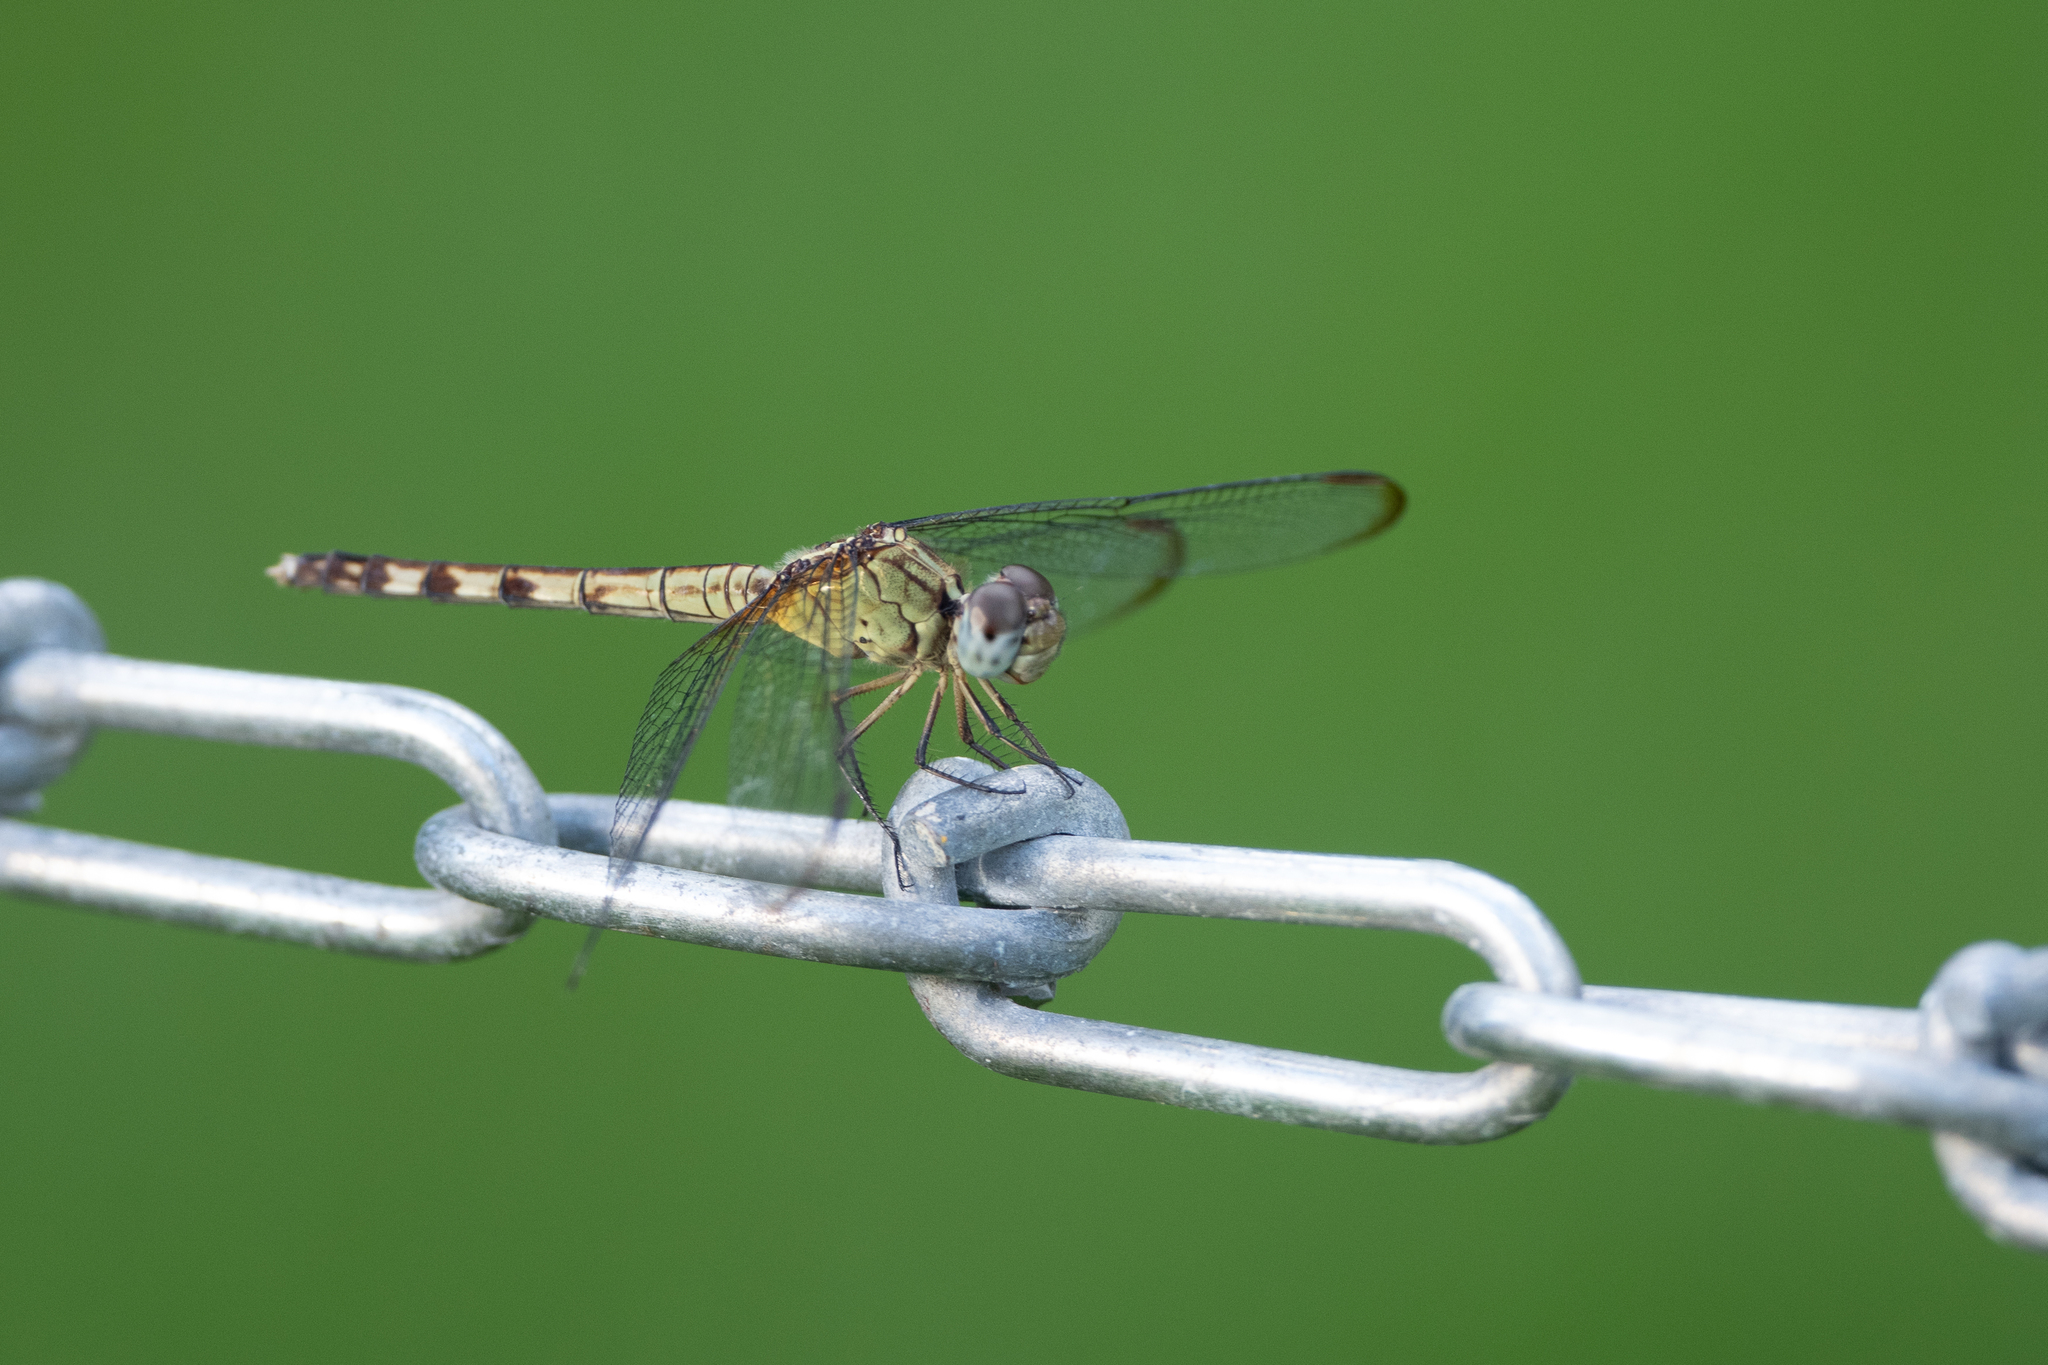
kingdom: Animalia
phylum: Arthropoda
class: Insecta
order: Odonata
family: Libellulidae
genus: Erythrodiplax
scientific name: Erythrodiplax umbrata
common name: Band-winged dragonlet
